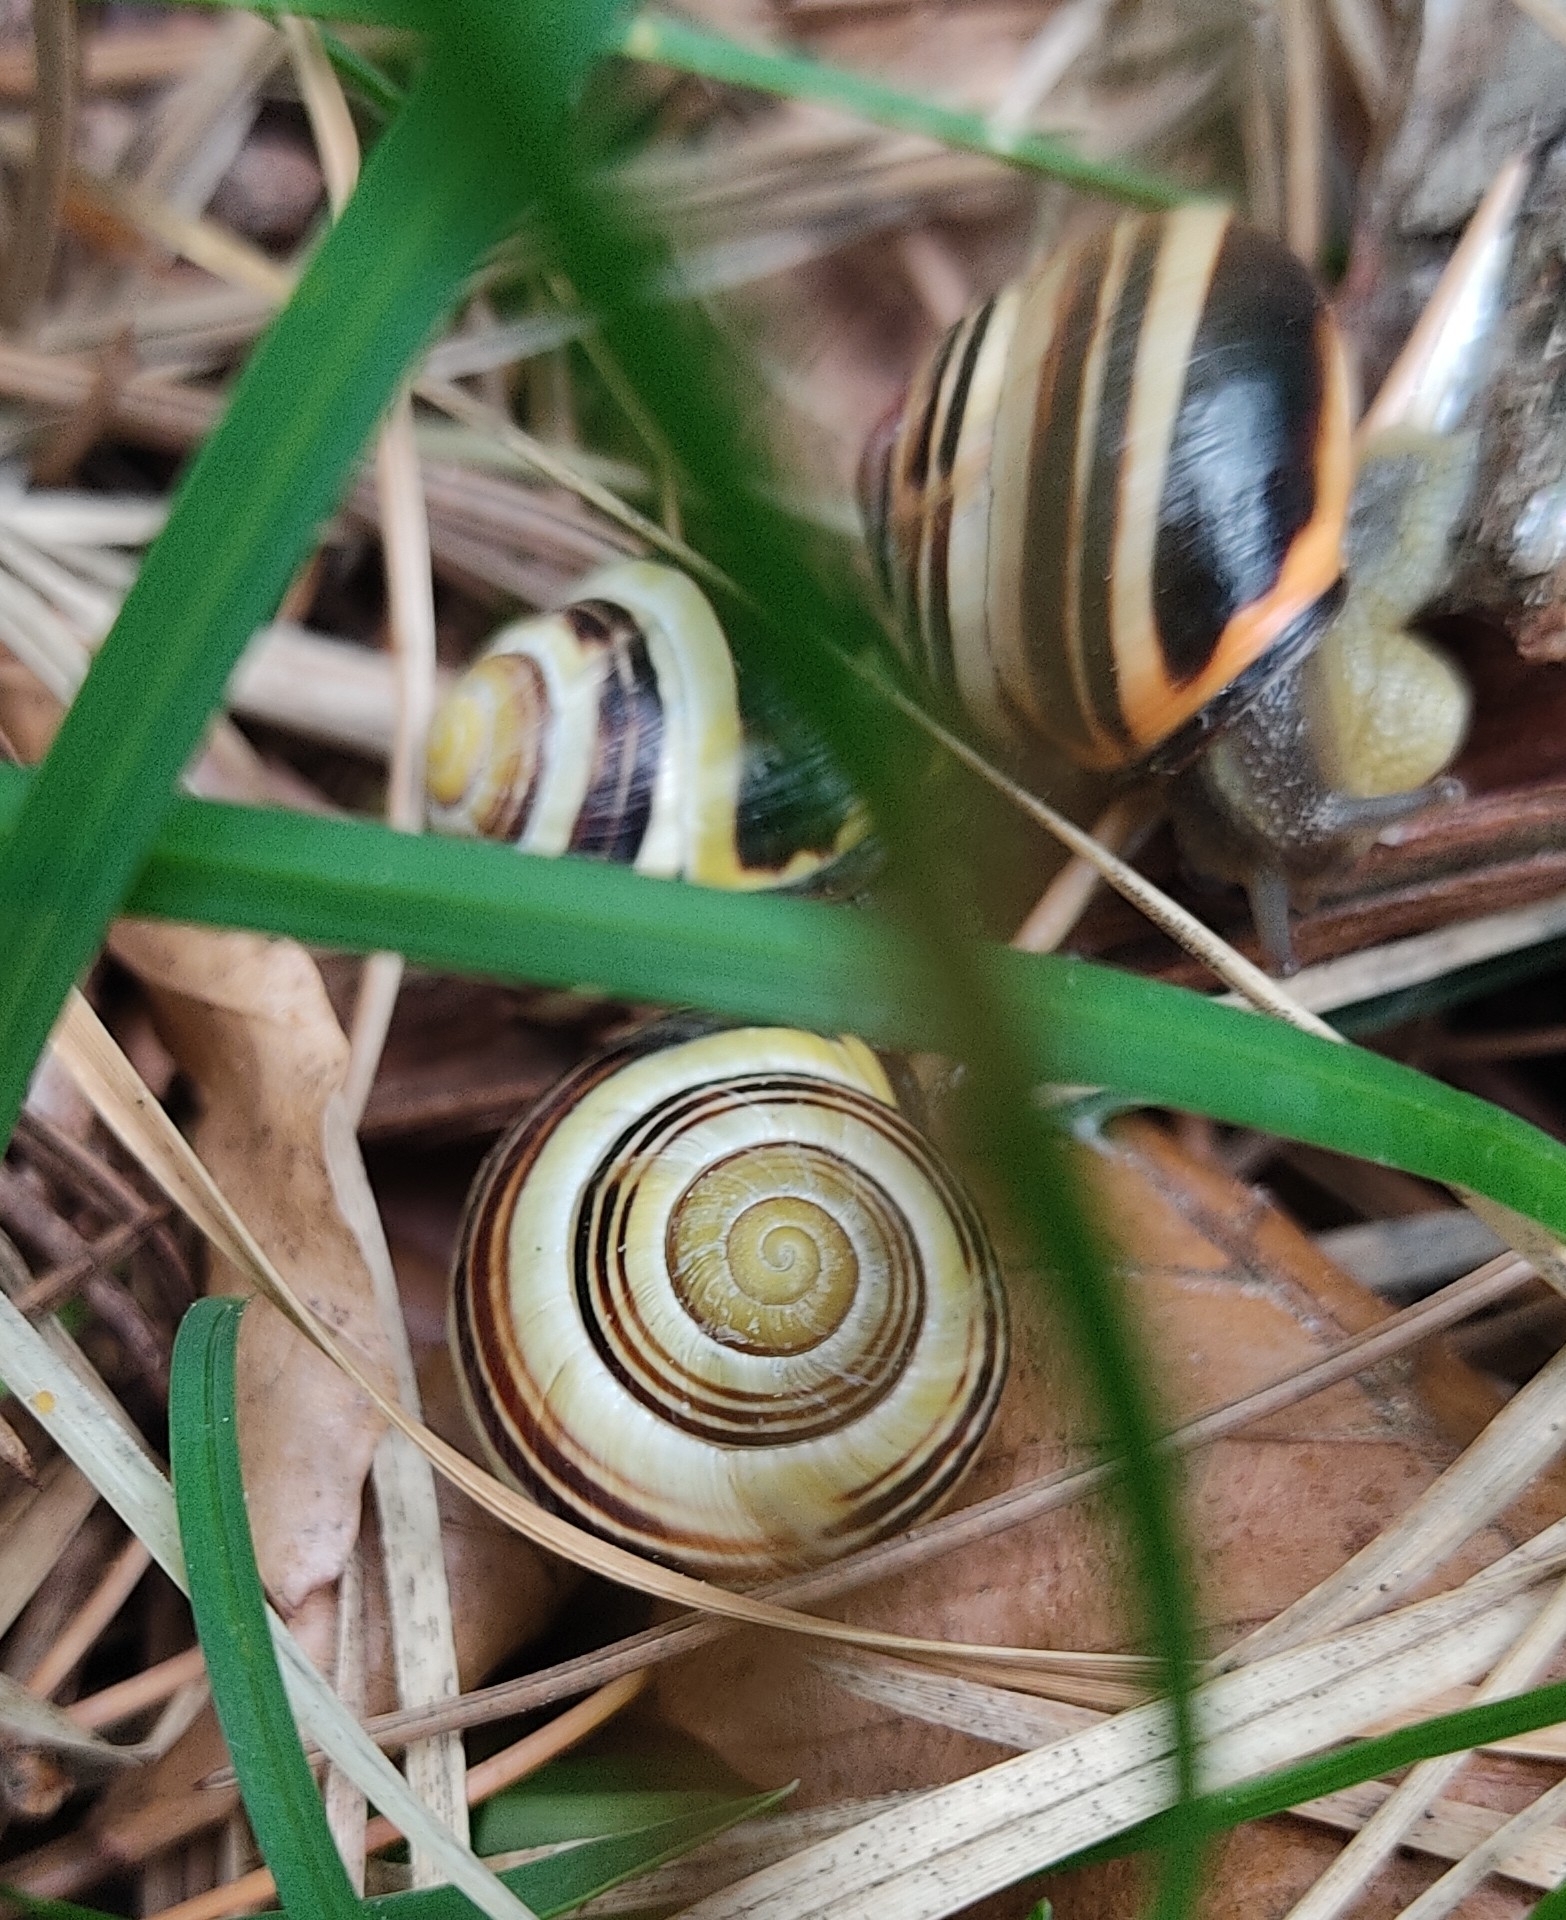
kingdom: Animalia
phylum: Mollusca
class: Gastropoda
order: Stylommatophora
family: Helicidae
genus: Cepaea
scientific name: Cepaea nemoralis
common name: Grovesnail
